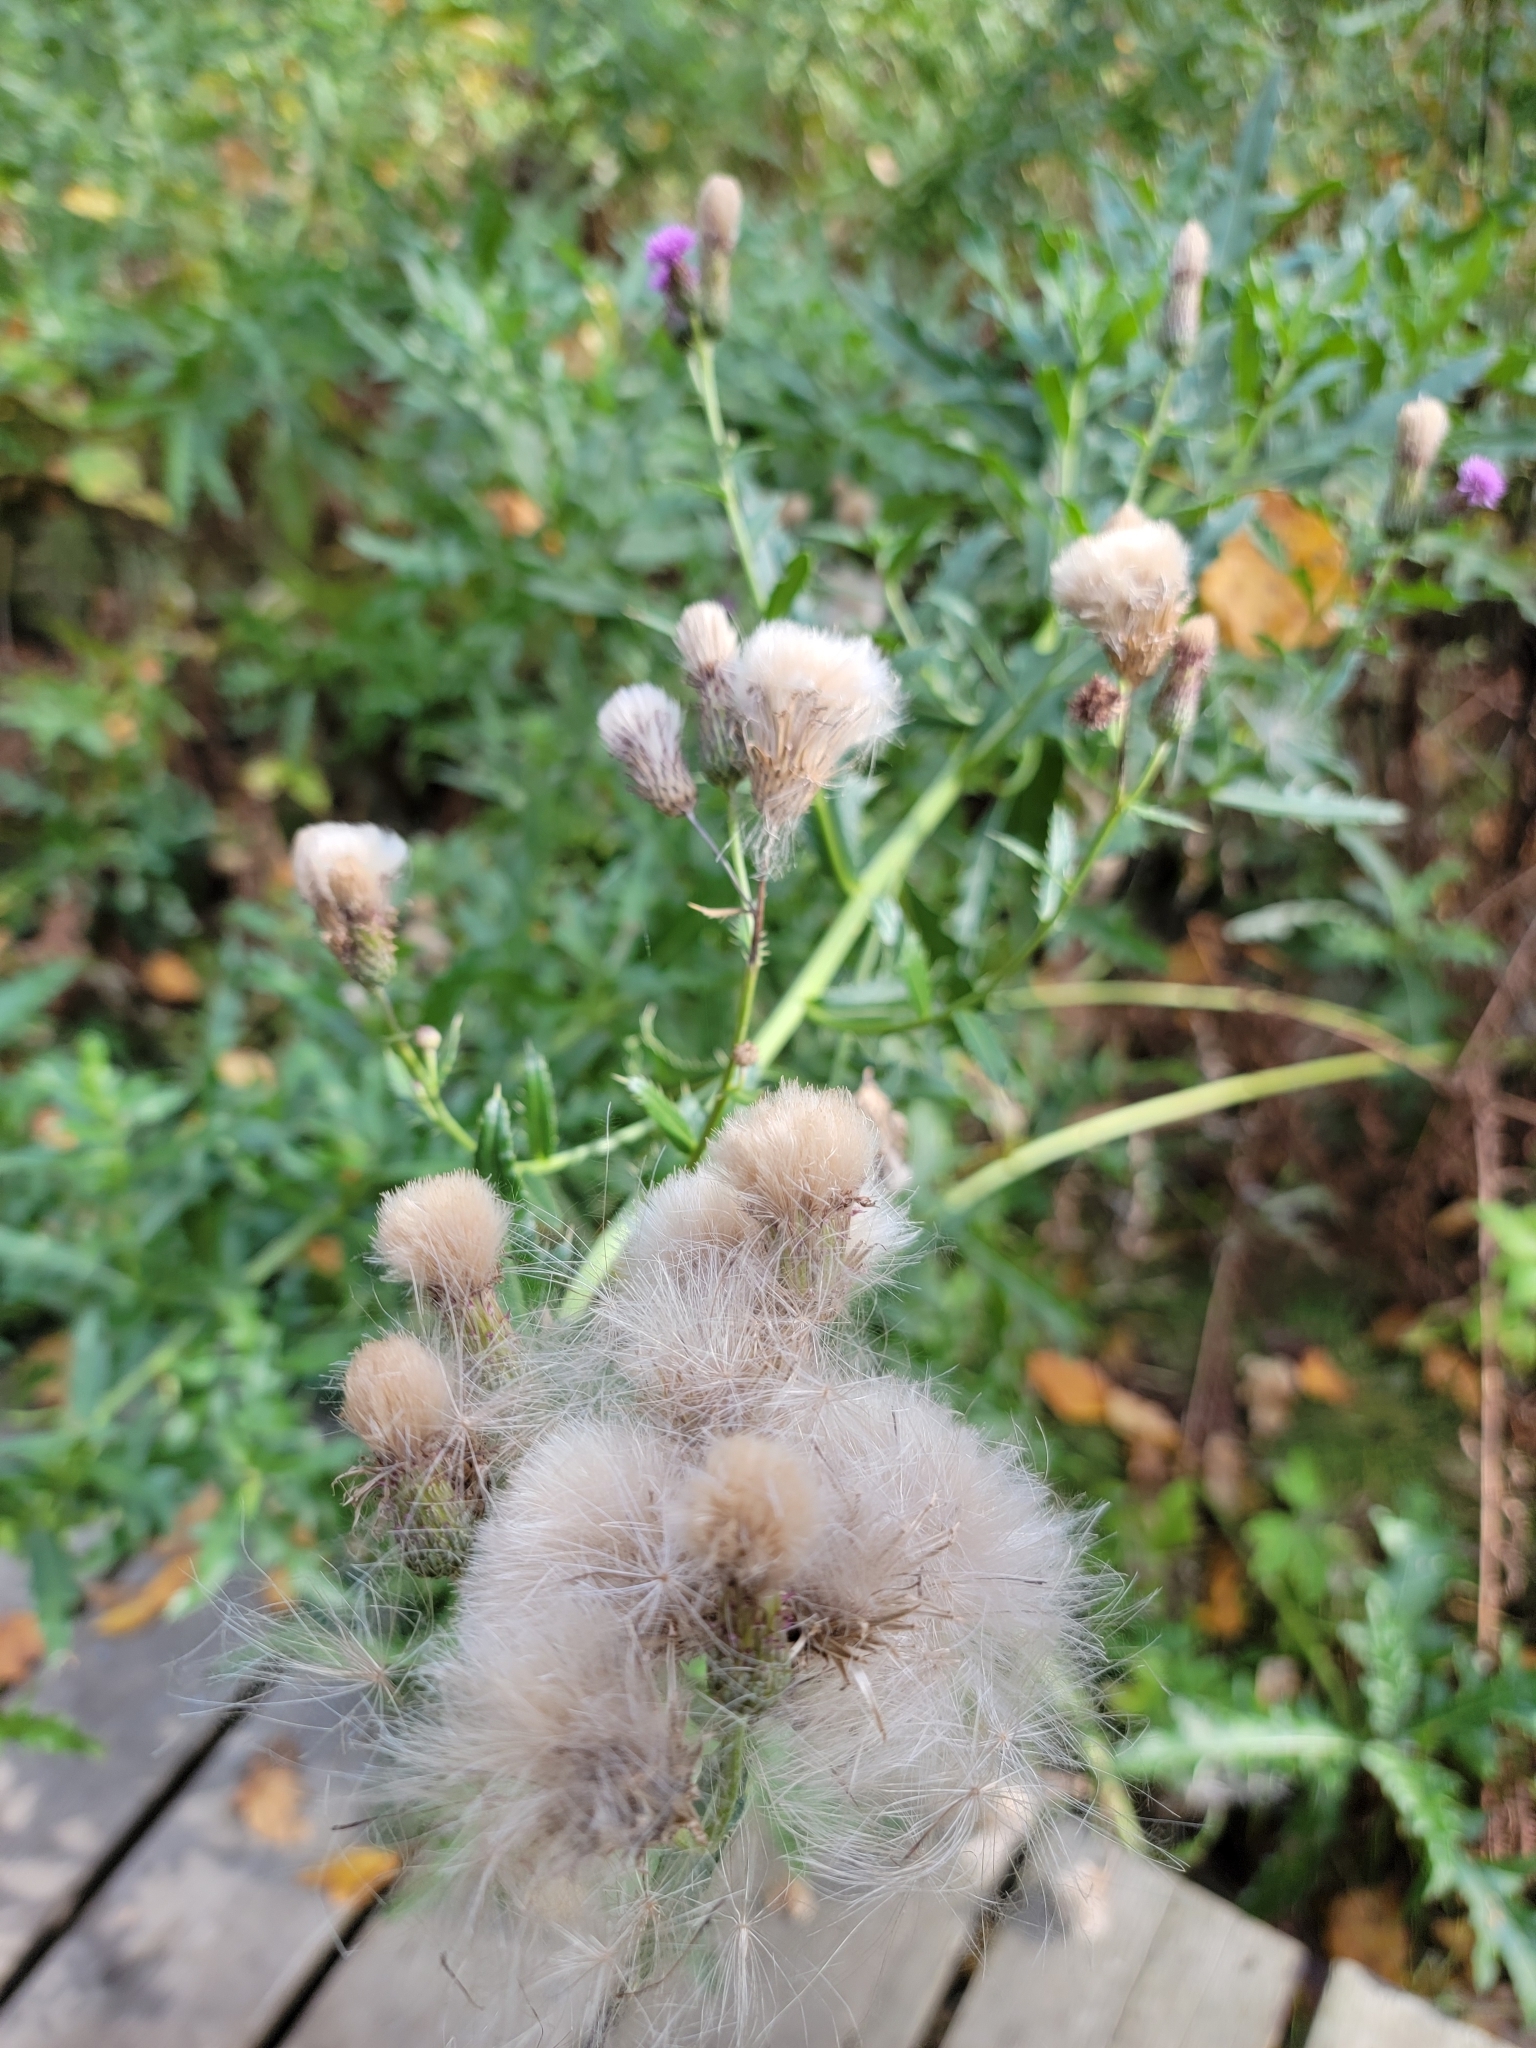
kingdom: Plantae
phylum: Tracheophyta
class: Magnoliopsida
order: Asterales
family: Asteraceae
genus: Cirsium
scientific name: Cirsium arvense
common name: Creeping thistle
